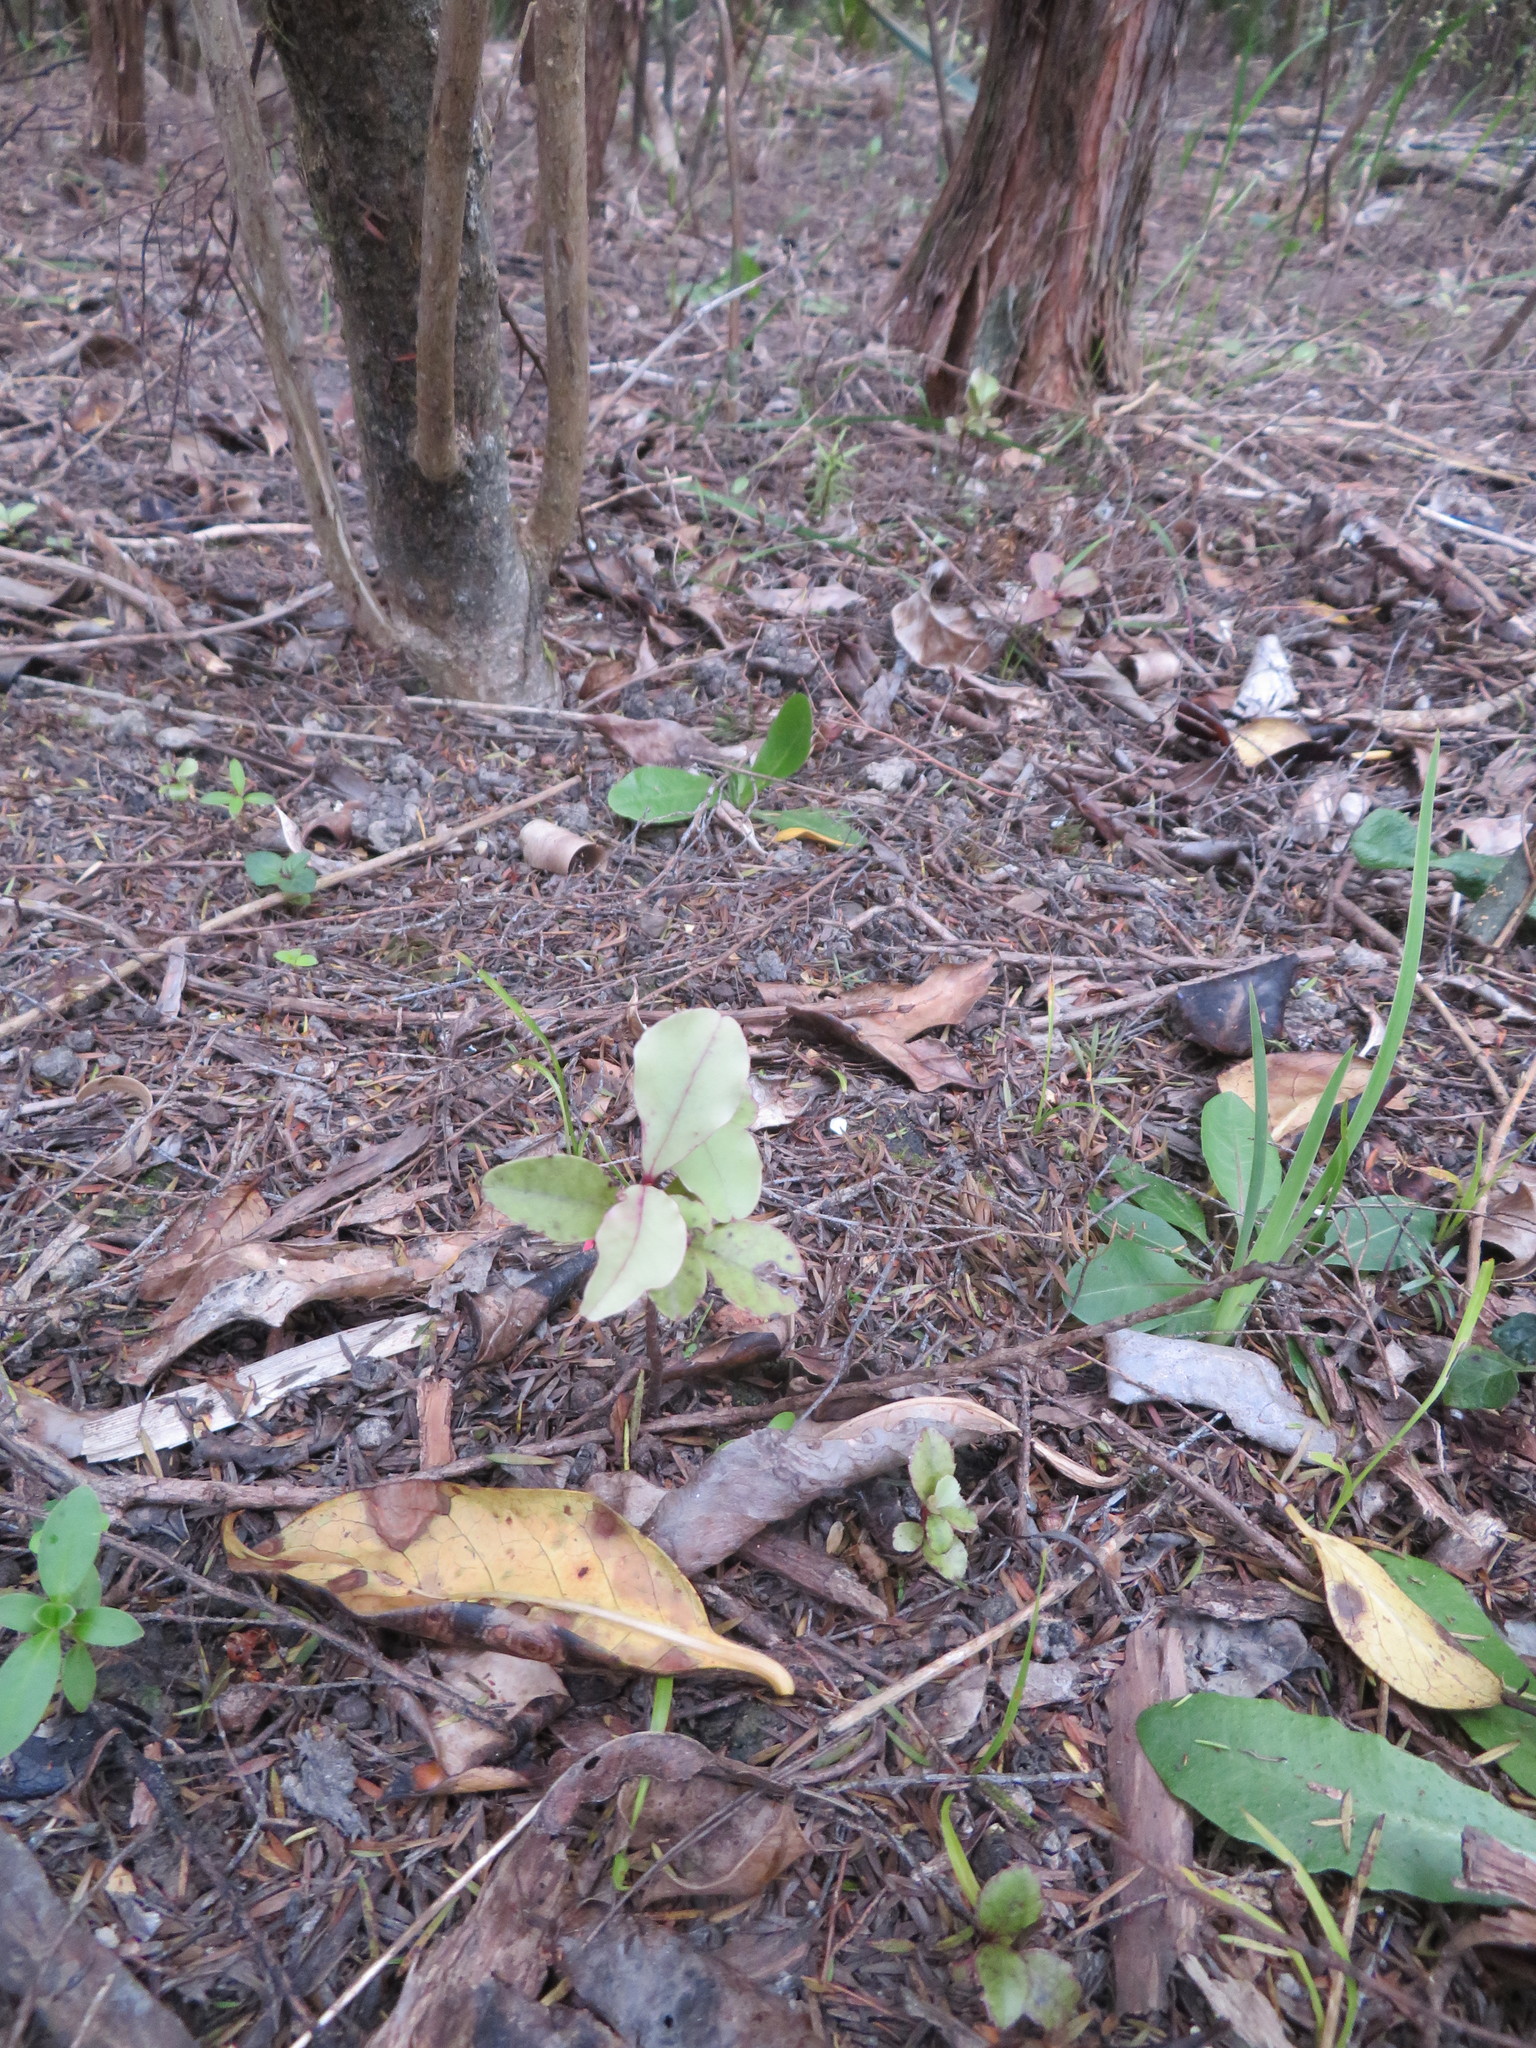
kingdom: Plantae
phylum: Tracheophyta
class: Magnoliopsida
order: Ericales
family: Primulaceae
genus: Myrsine
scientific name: Myrsine australis
